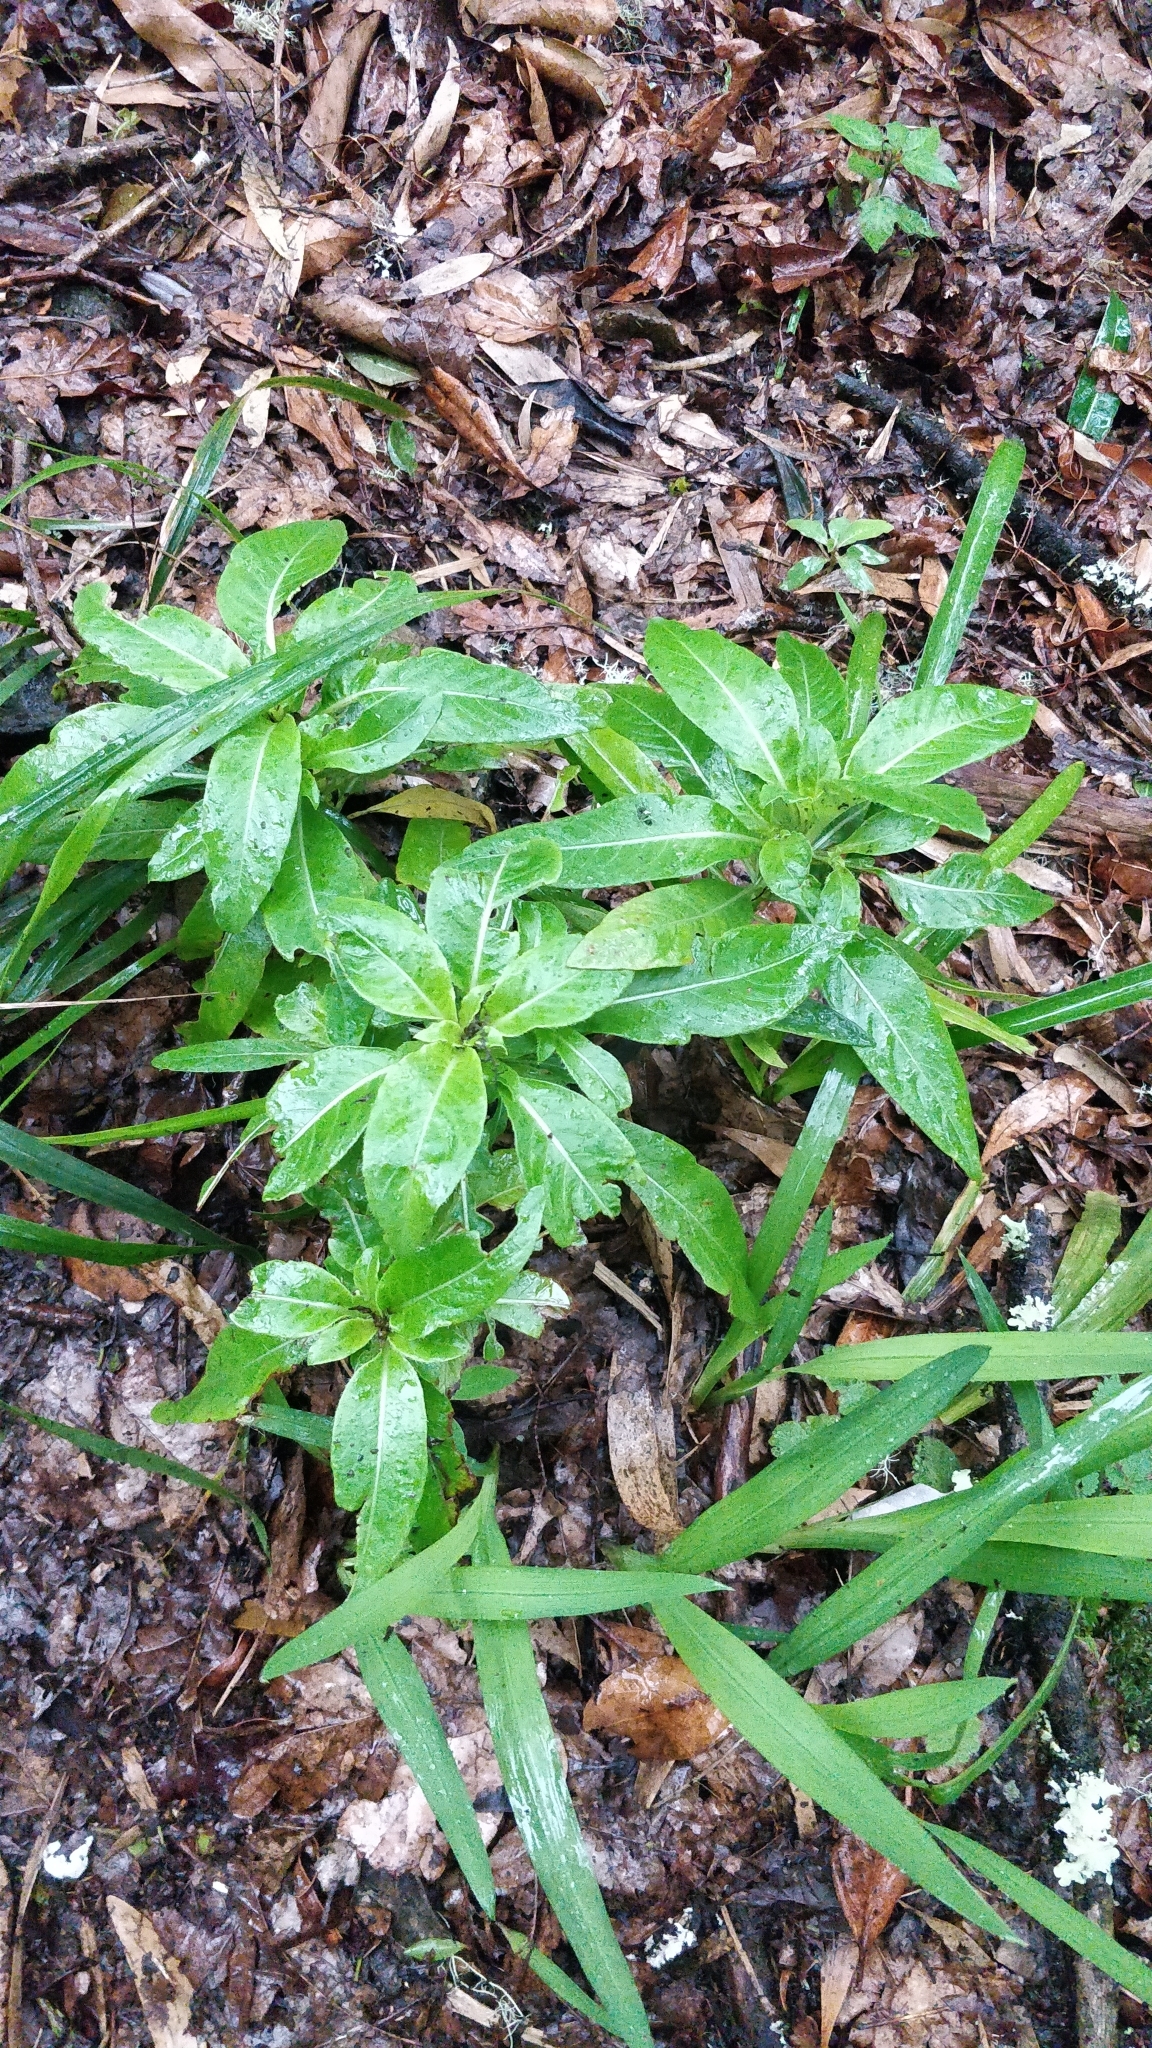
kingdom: Plantae
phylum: Tracheophyta
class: Magnoliopsida
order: Gentianales
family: Rubiaceae
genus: Phyllis
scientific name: Phyllis nobla
